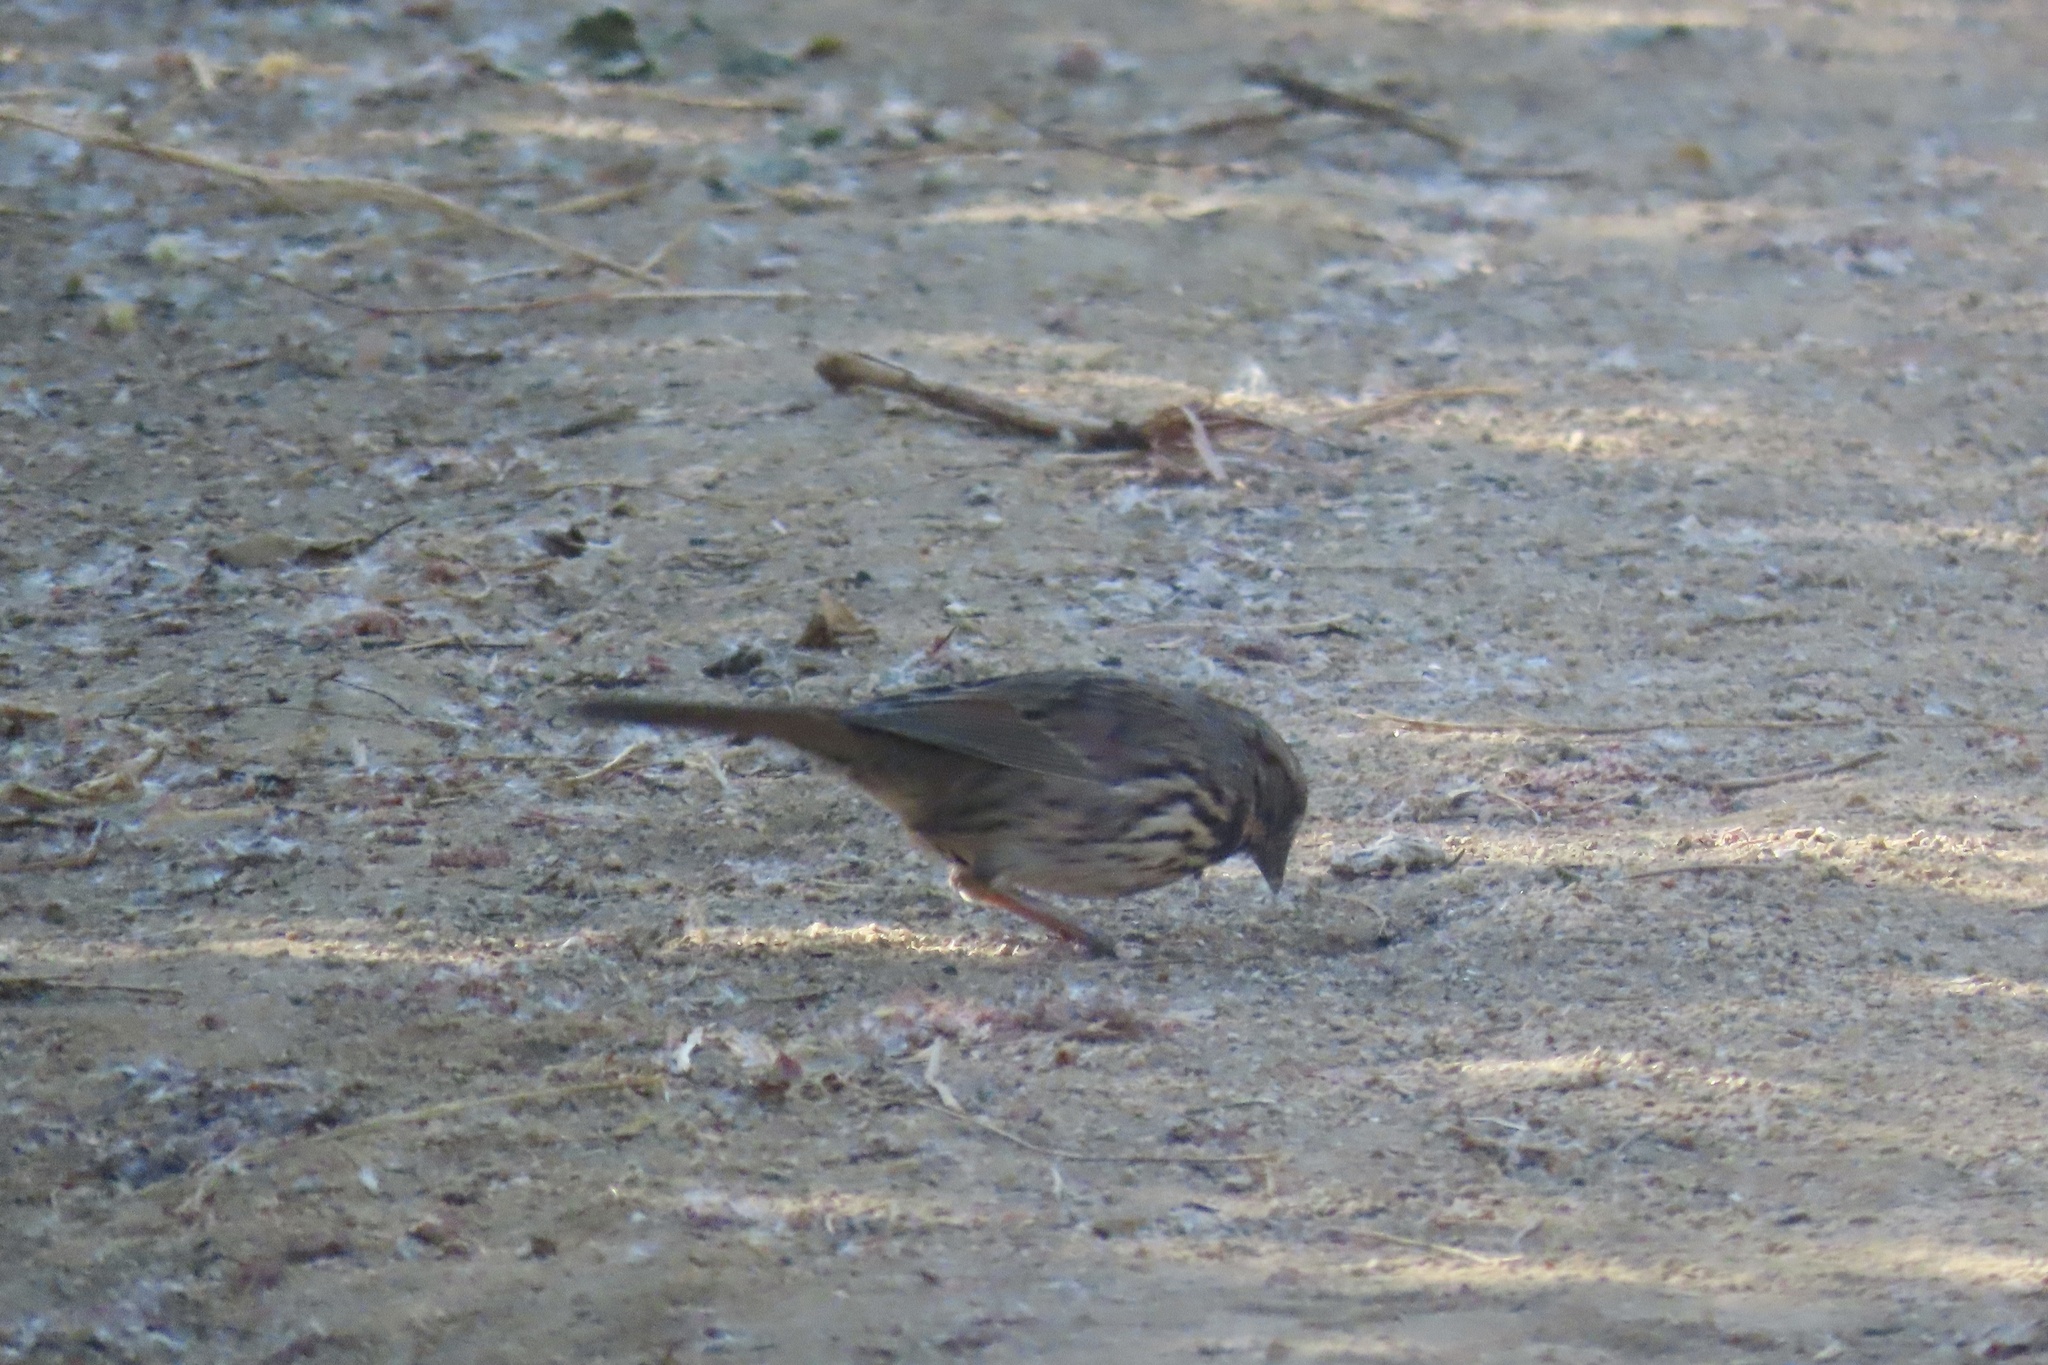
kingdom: Animalia
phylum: Chordata
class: Aves
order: Passeriformes
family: Passerellidae
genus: Melospiza
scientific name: Melospiza melodia
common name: Song sparrow
